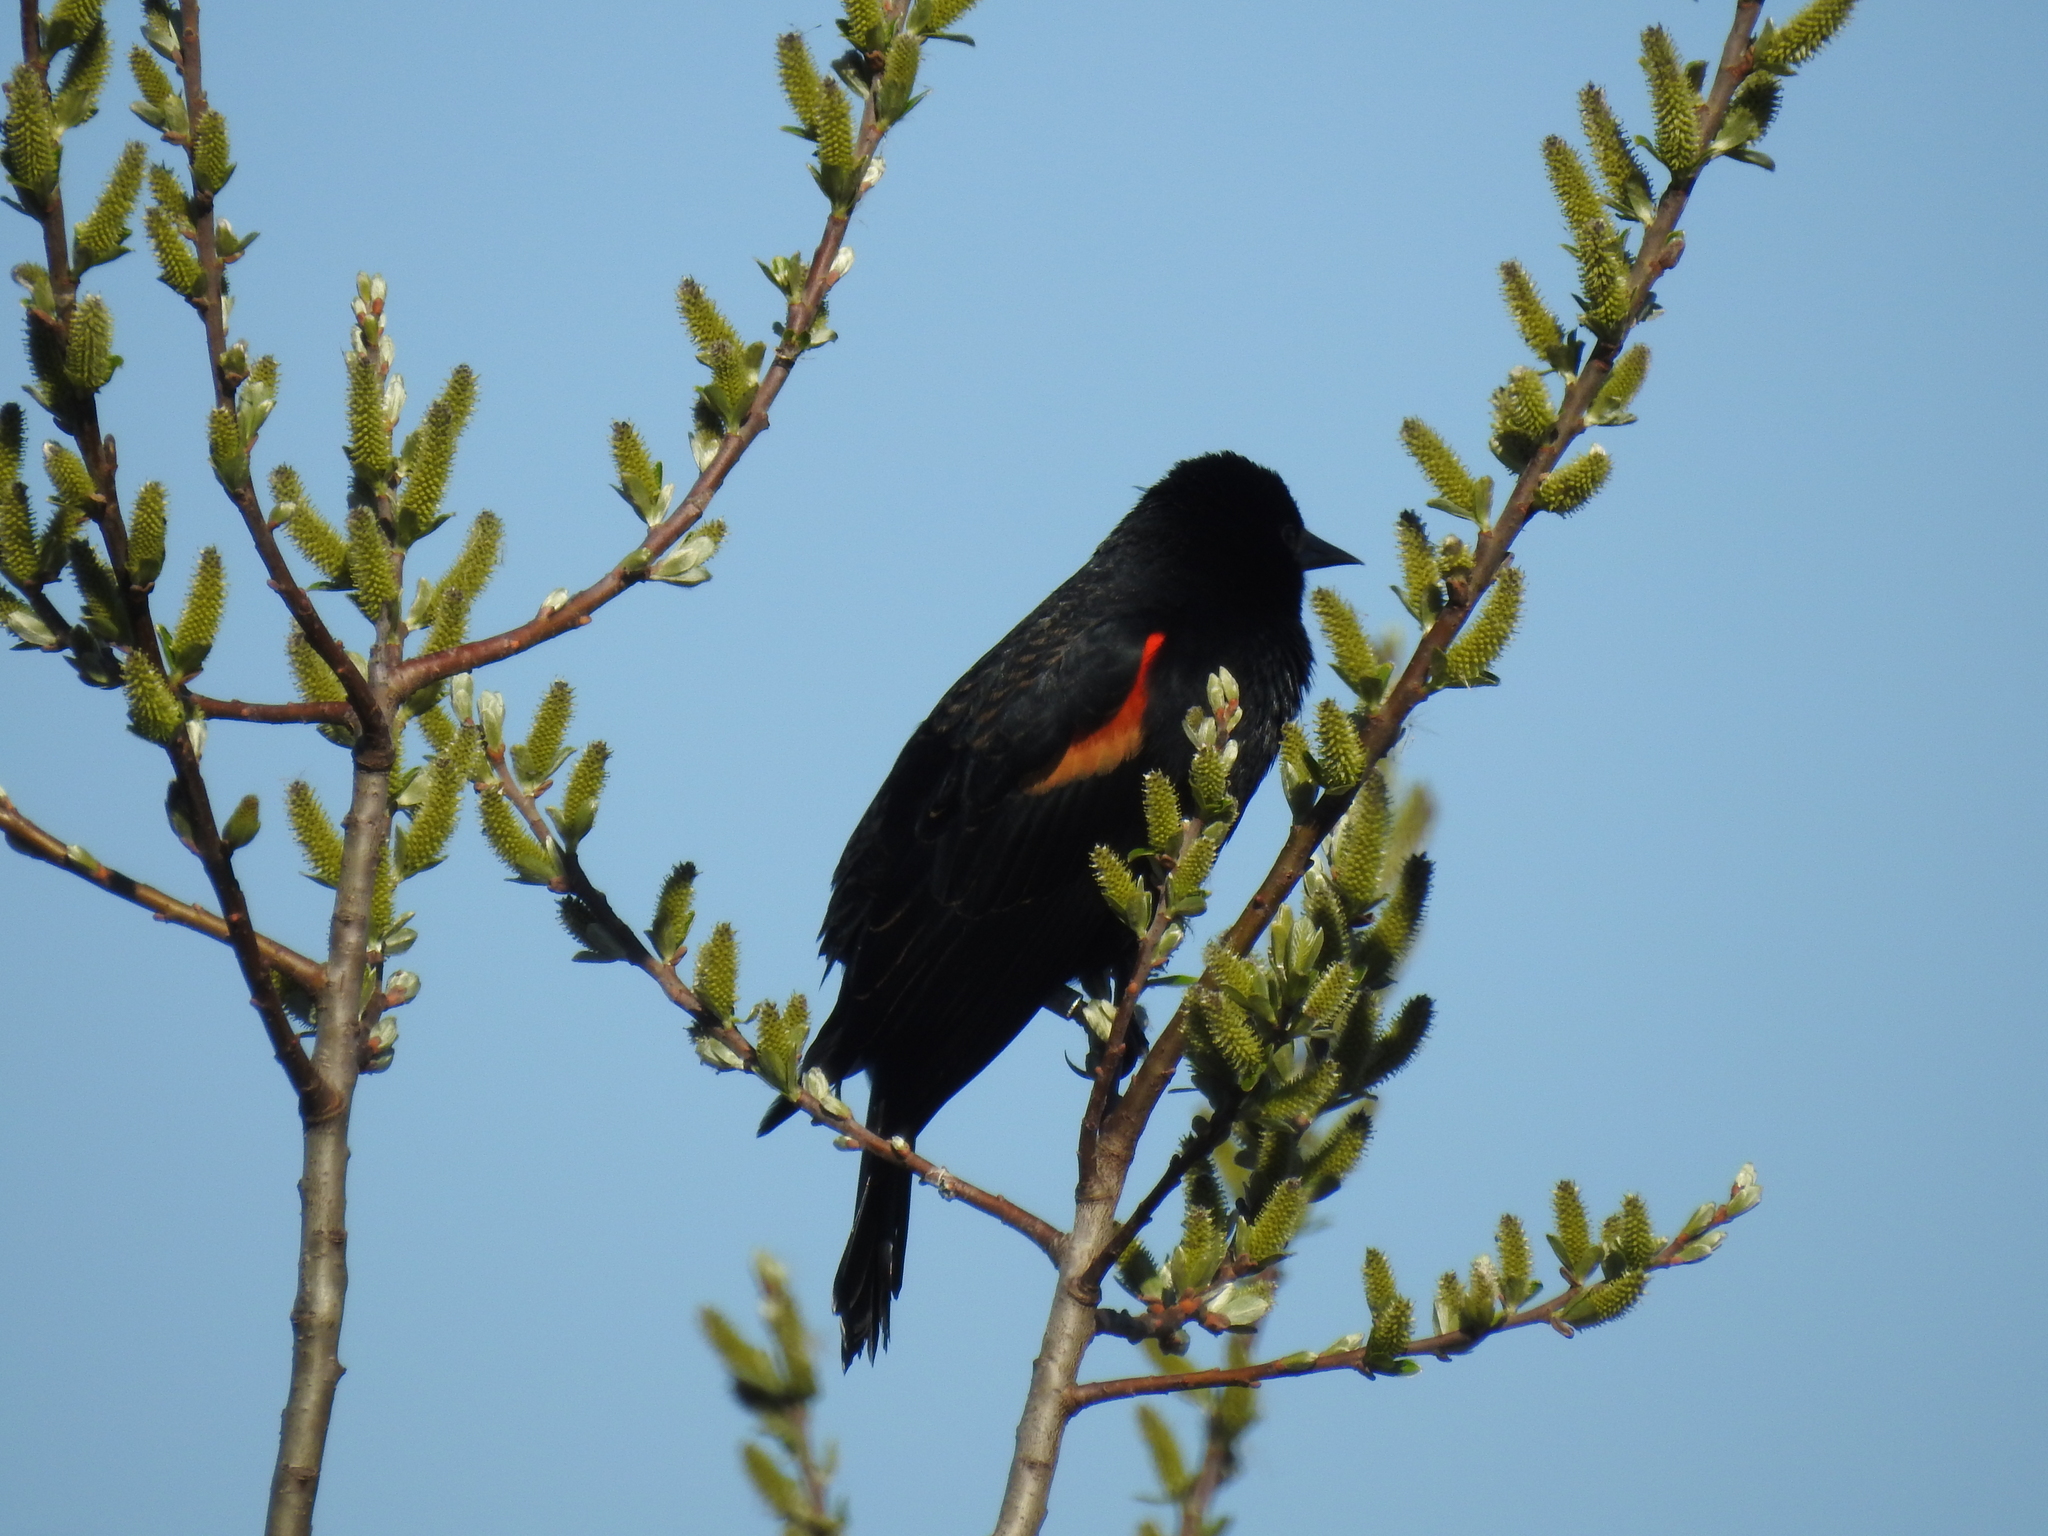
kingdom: Animalia
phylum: Chordata
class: Aves
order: Passeriformes
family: Icteridae
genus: Agelaius
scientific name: Agelaius phoeniceus
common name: Red-winged blackbird
